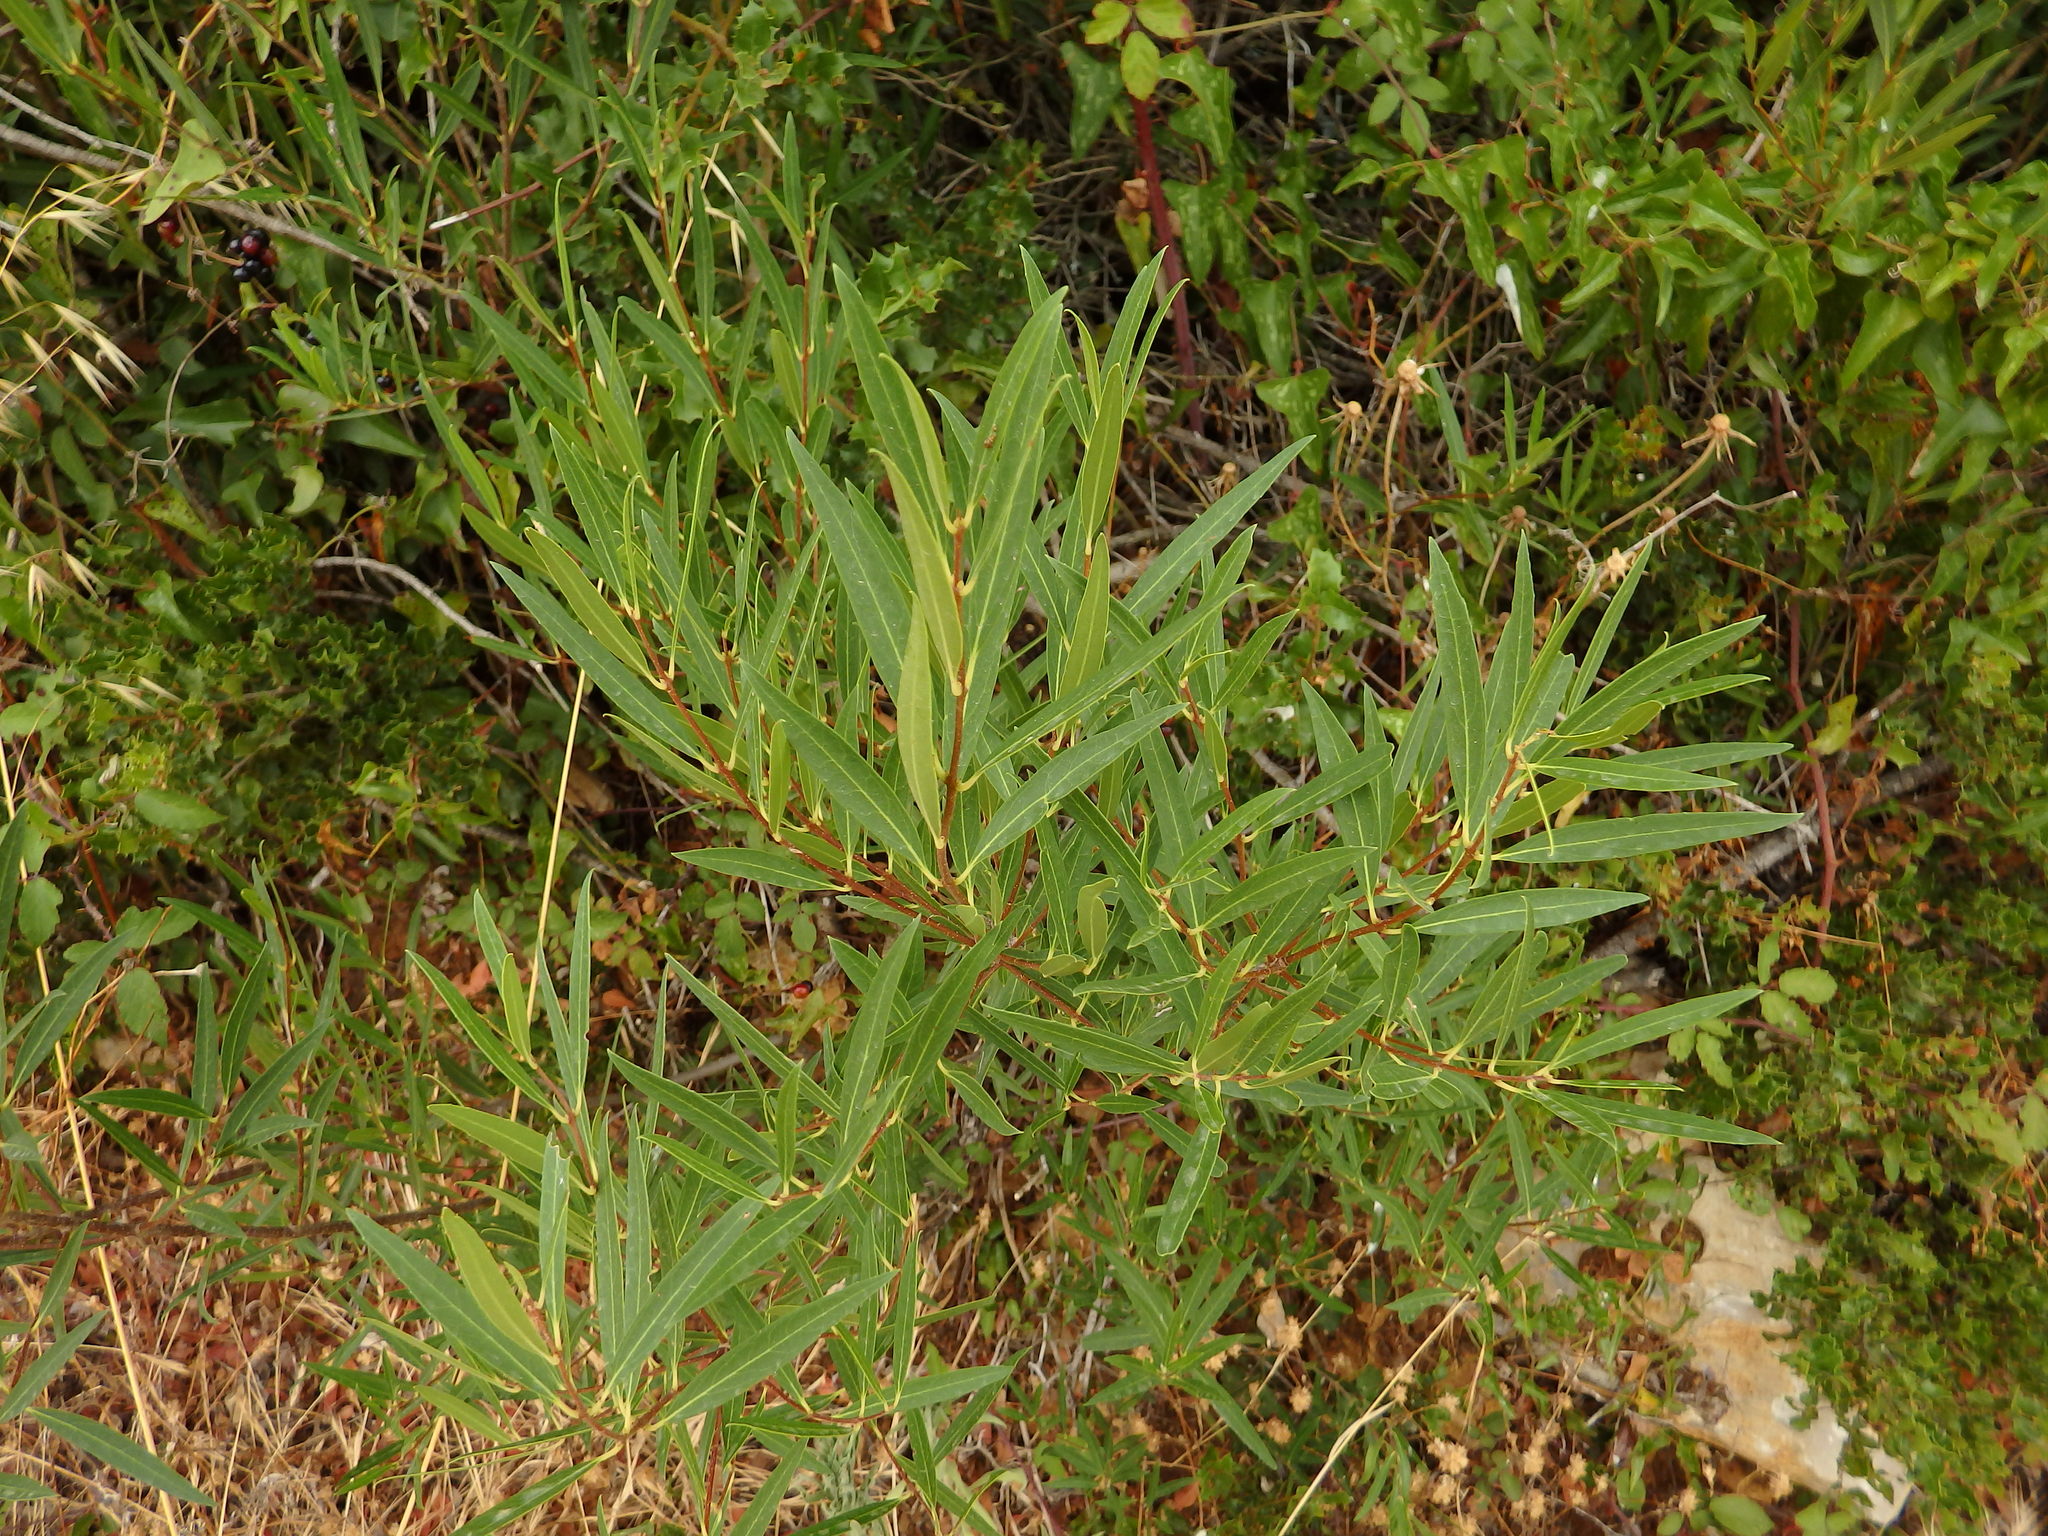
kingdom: Plantae
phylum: Tracheophyta
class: Magnoliopsida
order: Lamiales
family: Oleaceae
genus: Phillyrea
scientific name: Phillyrea angustifolia
